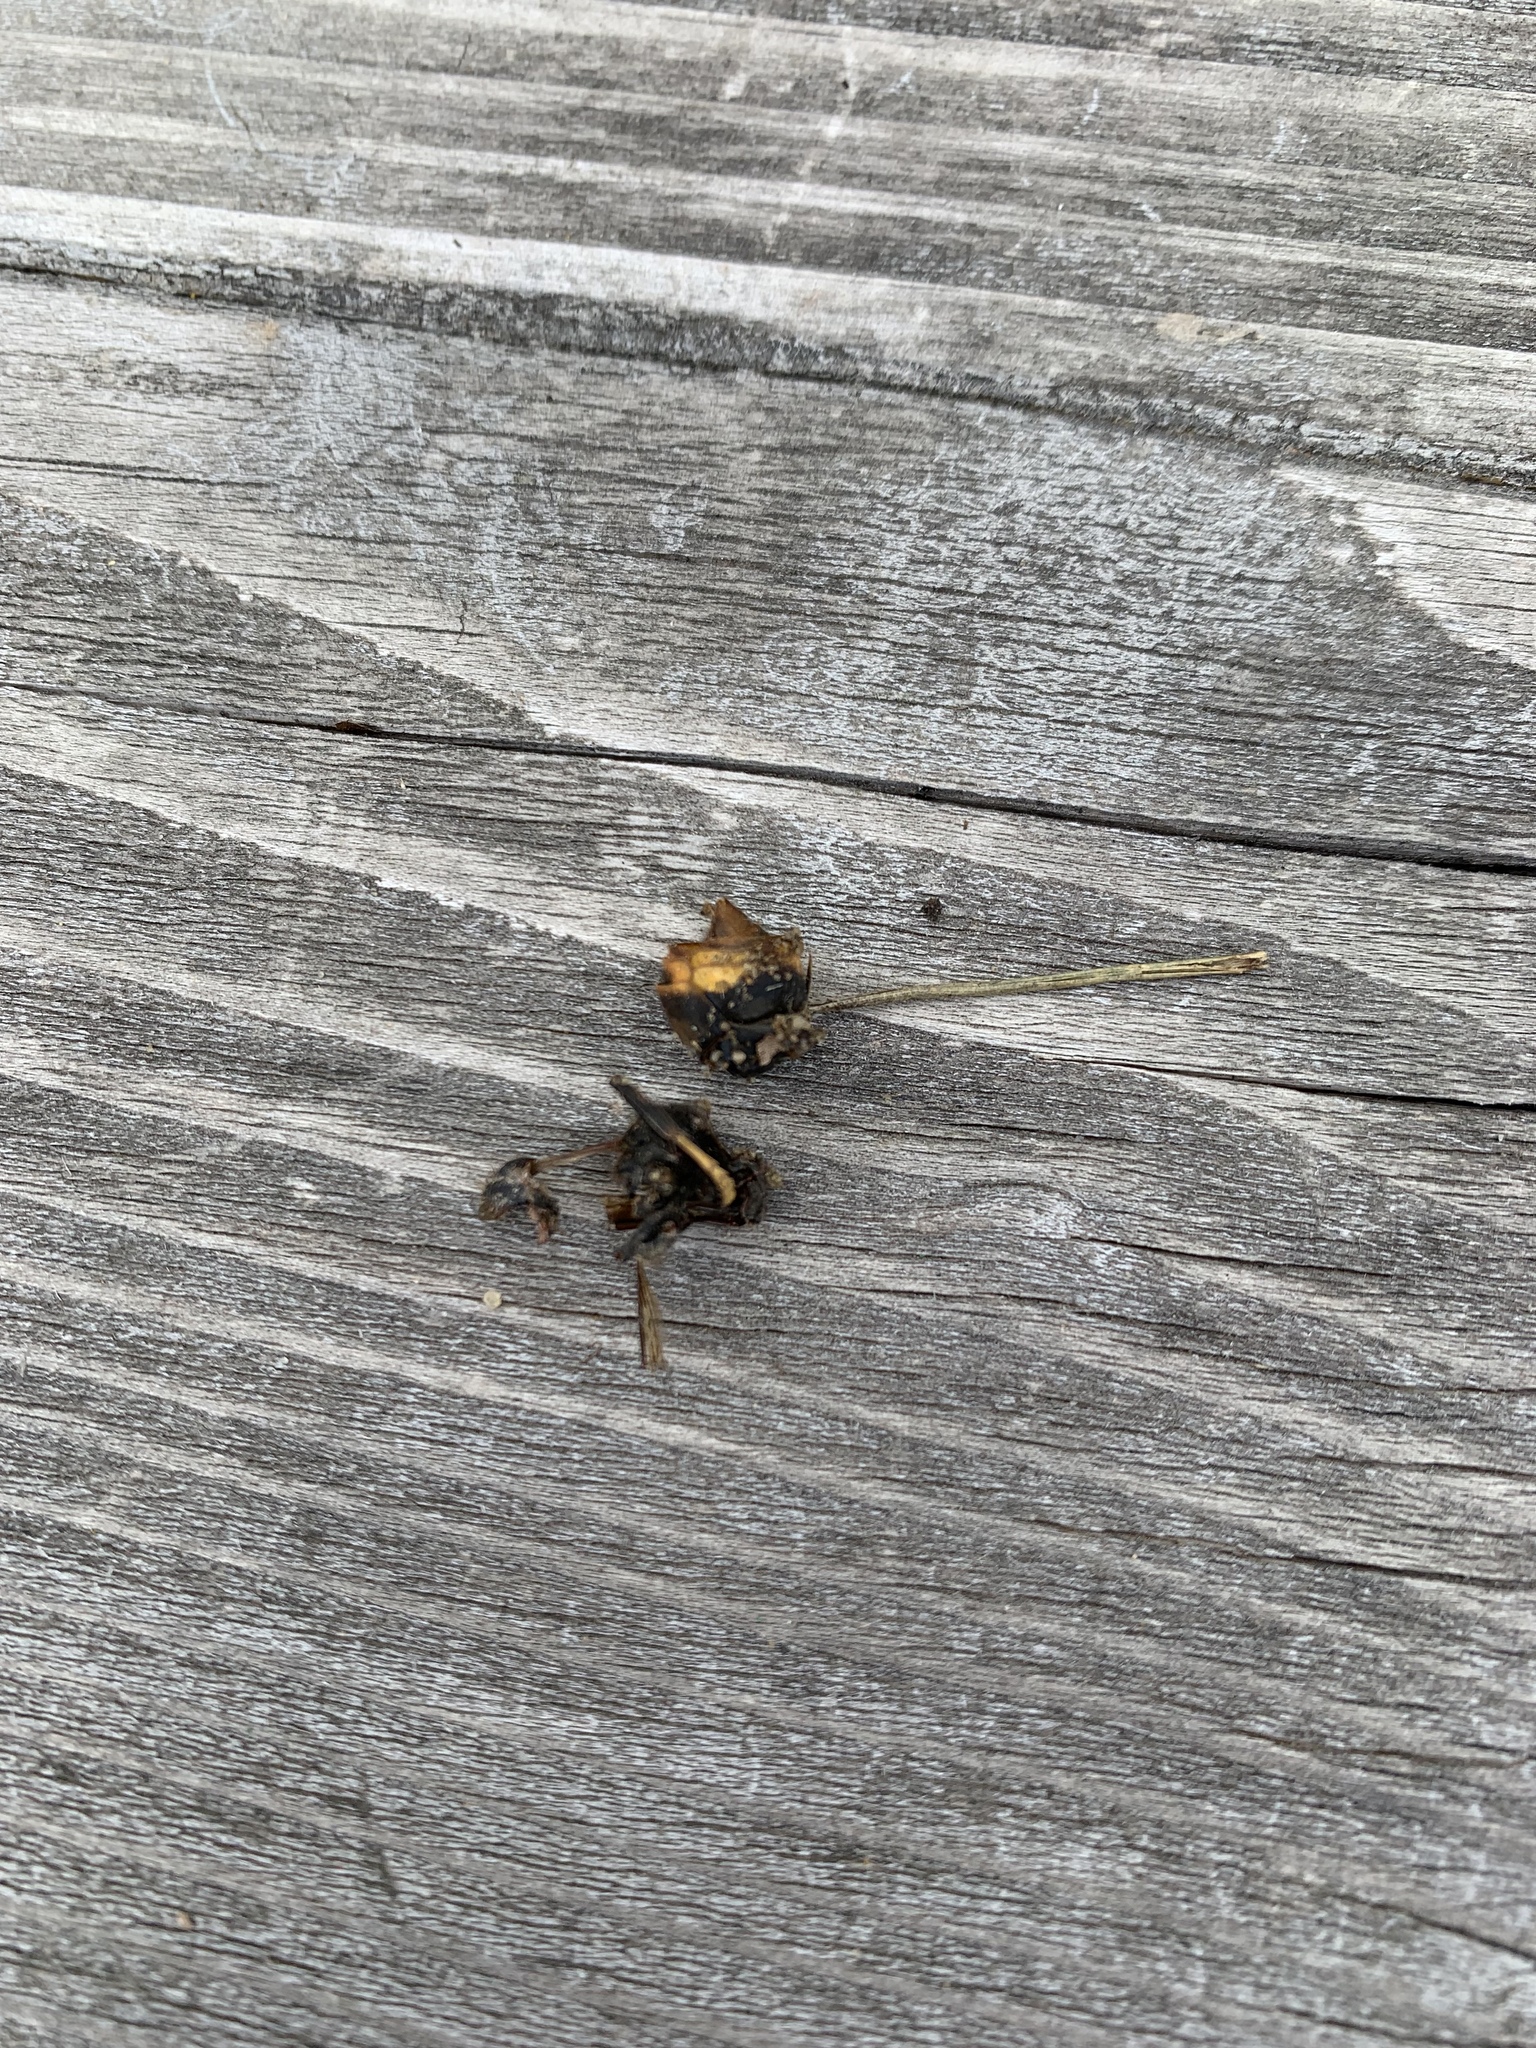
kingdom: Animalia
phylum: Arthropoda
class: Insecta
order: Hymenoptera
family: Vespidae
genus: Vespa
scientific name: Vespa velutina
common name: Asian hornet
